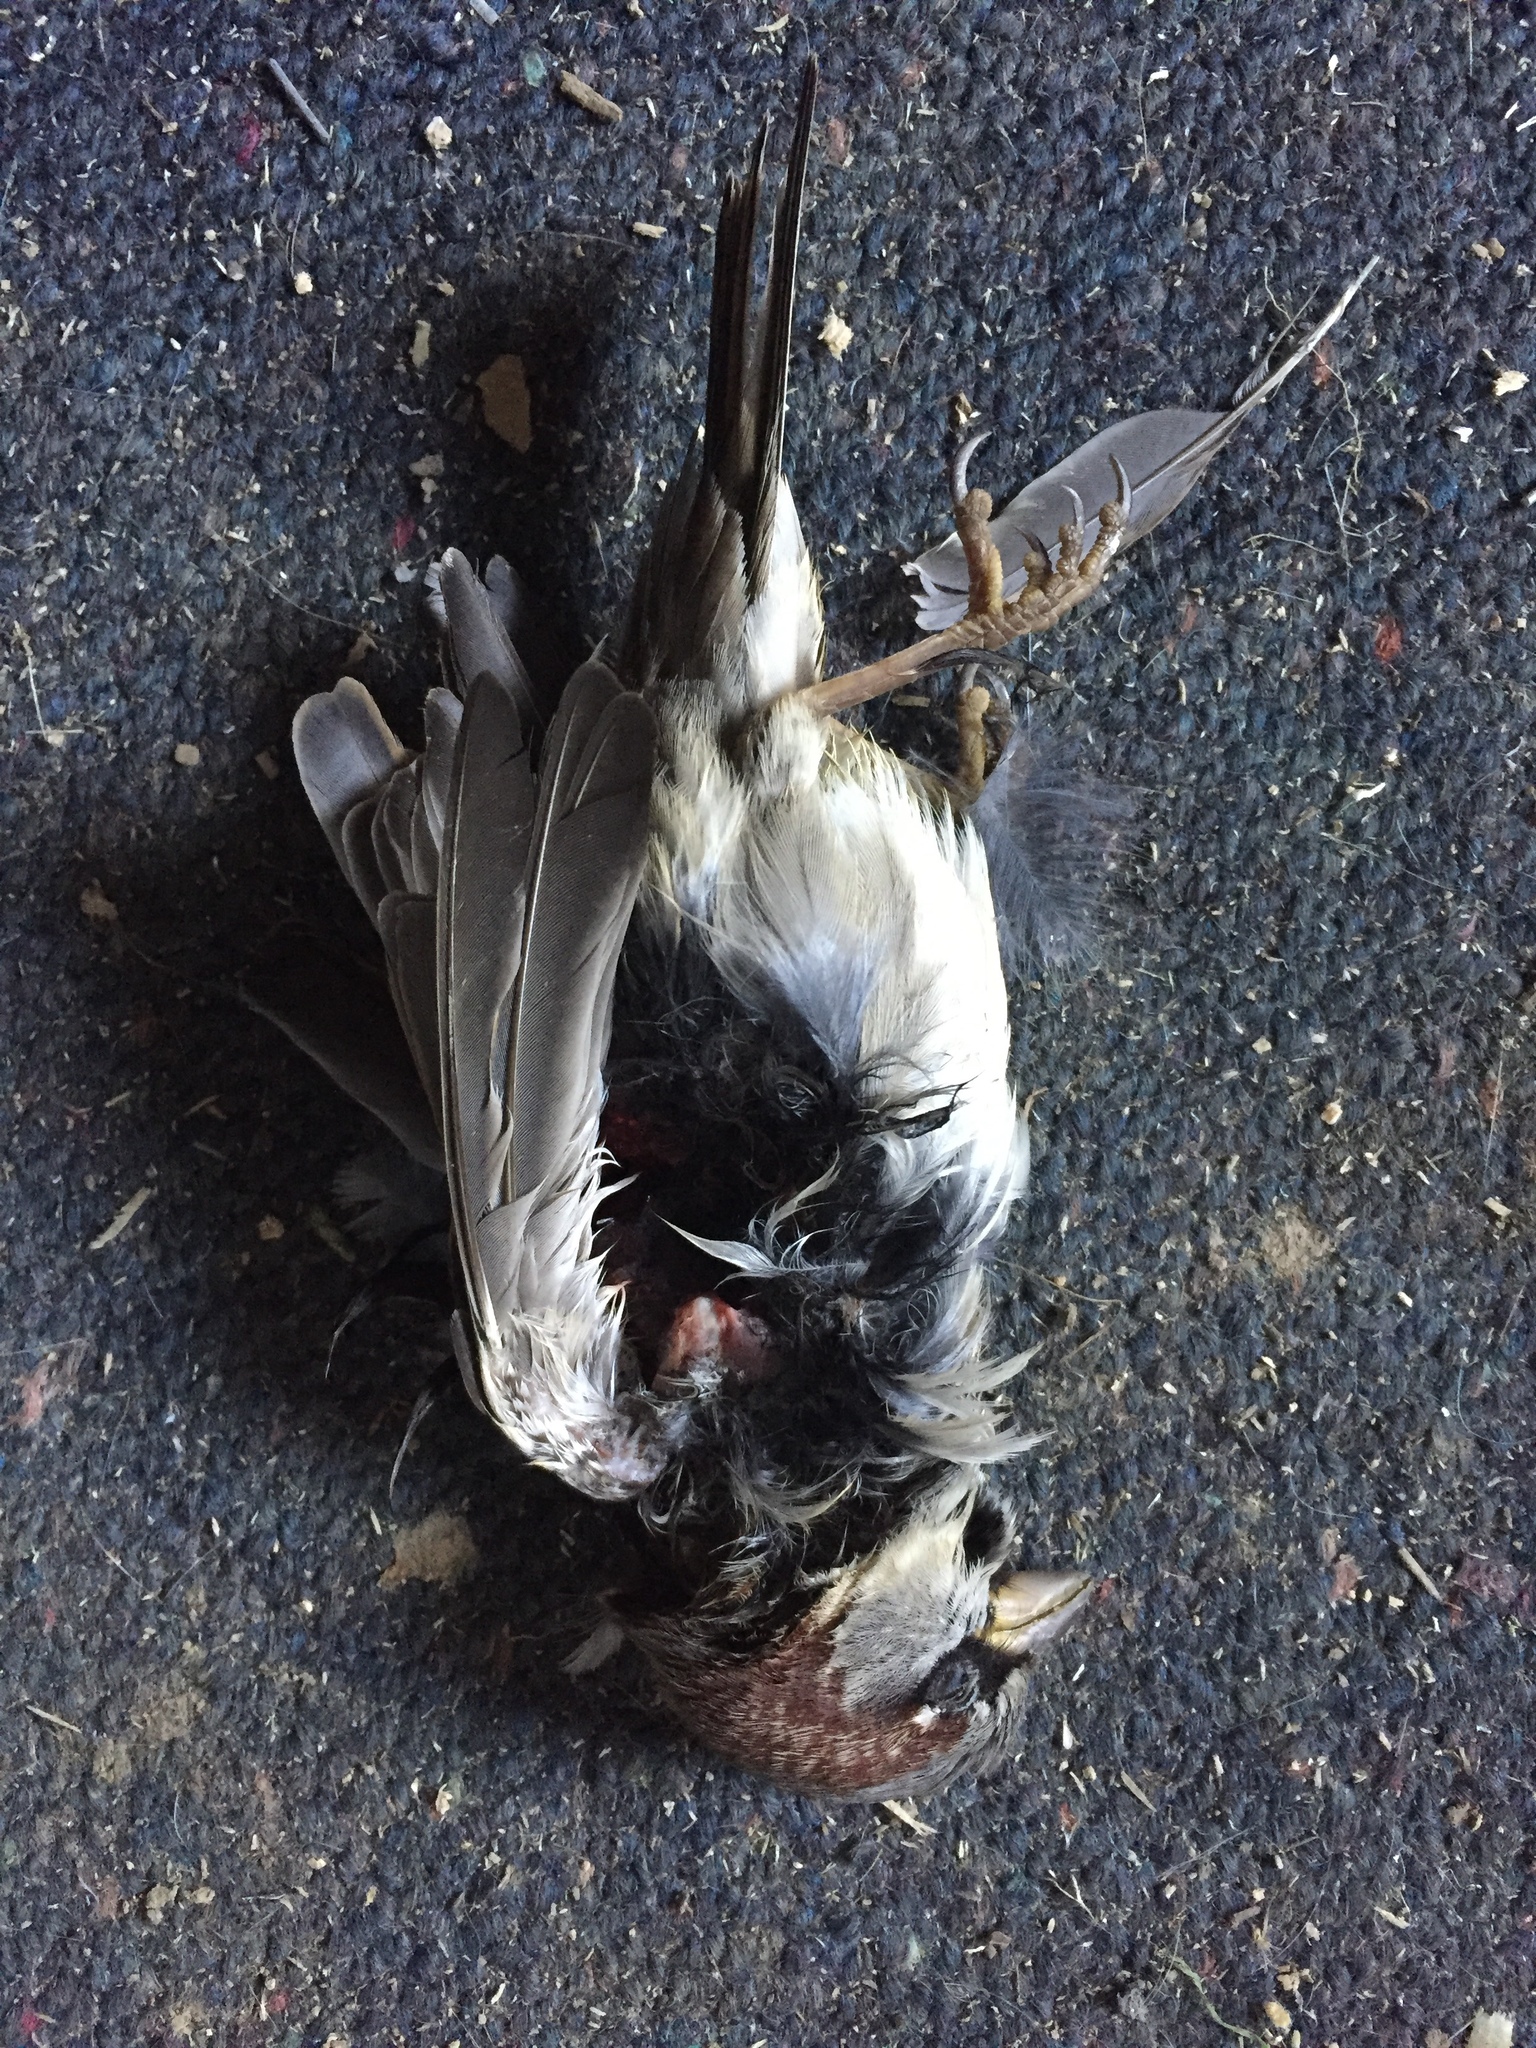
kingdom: Animalia
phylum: Chordata
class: Aves
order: Passeriformes
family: Passeridae
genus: Passer
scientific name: Passer domesticus
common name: House sparrow
